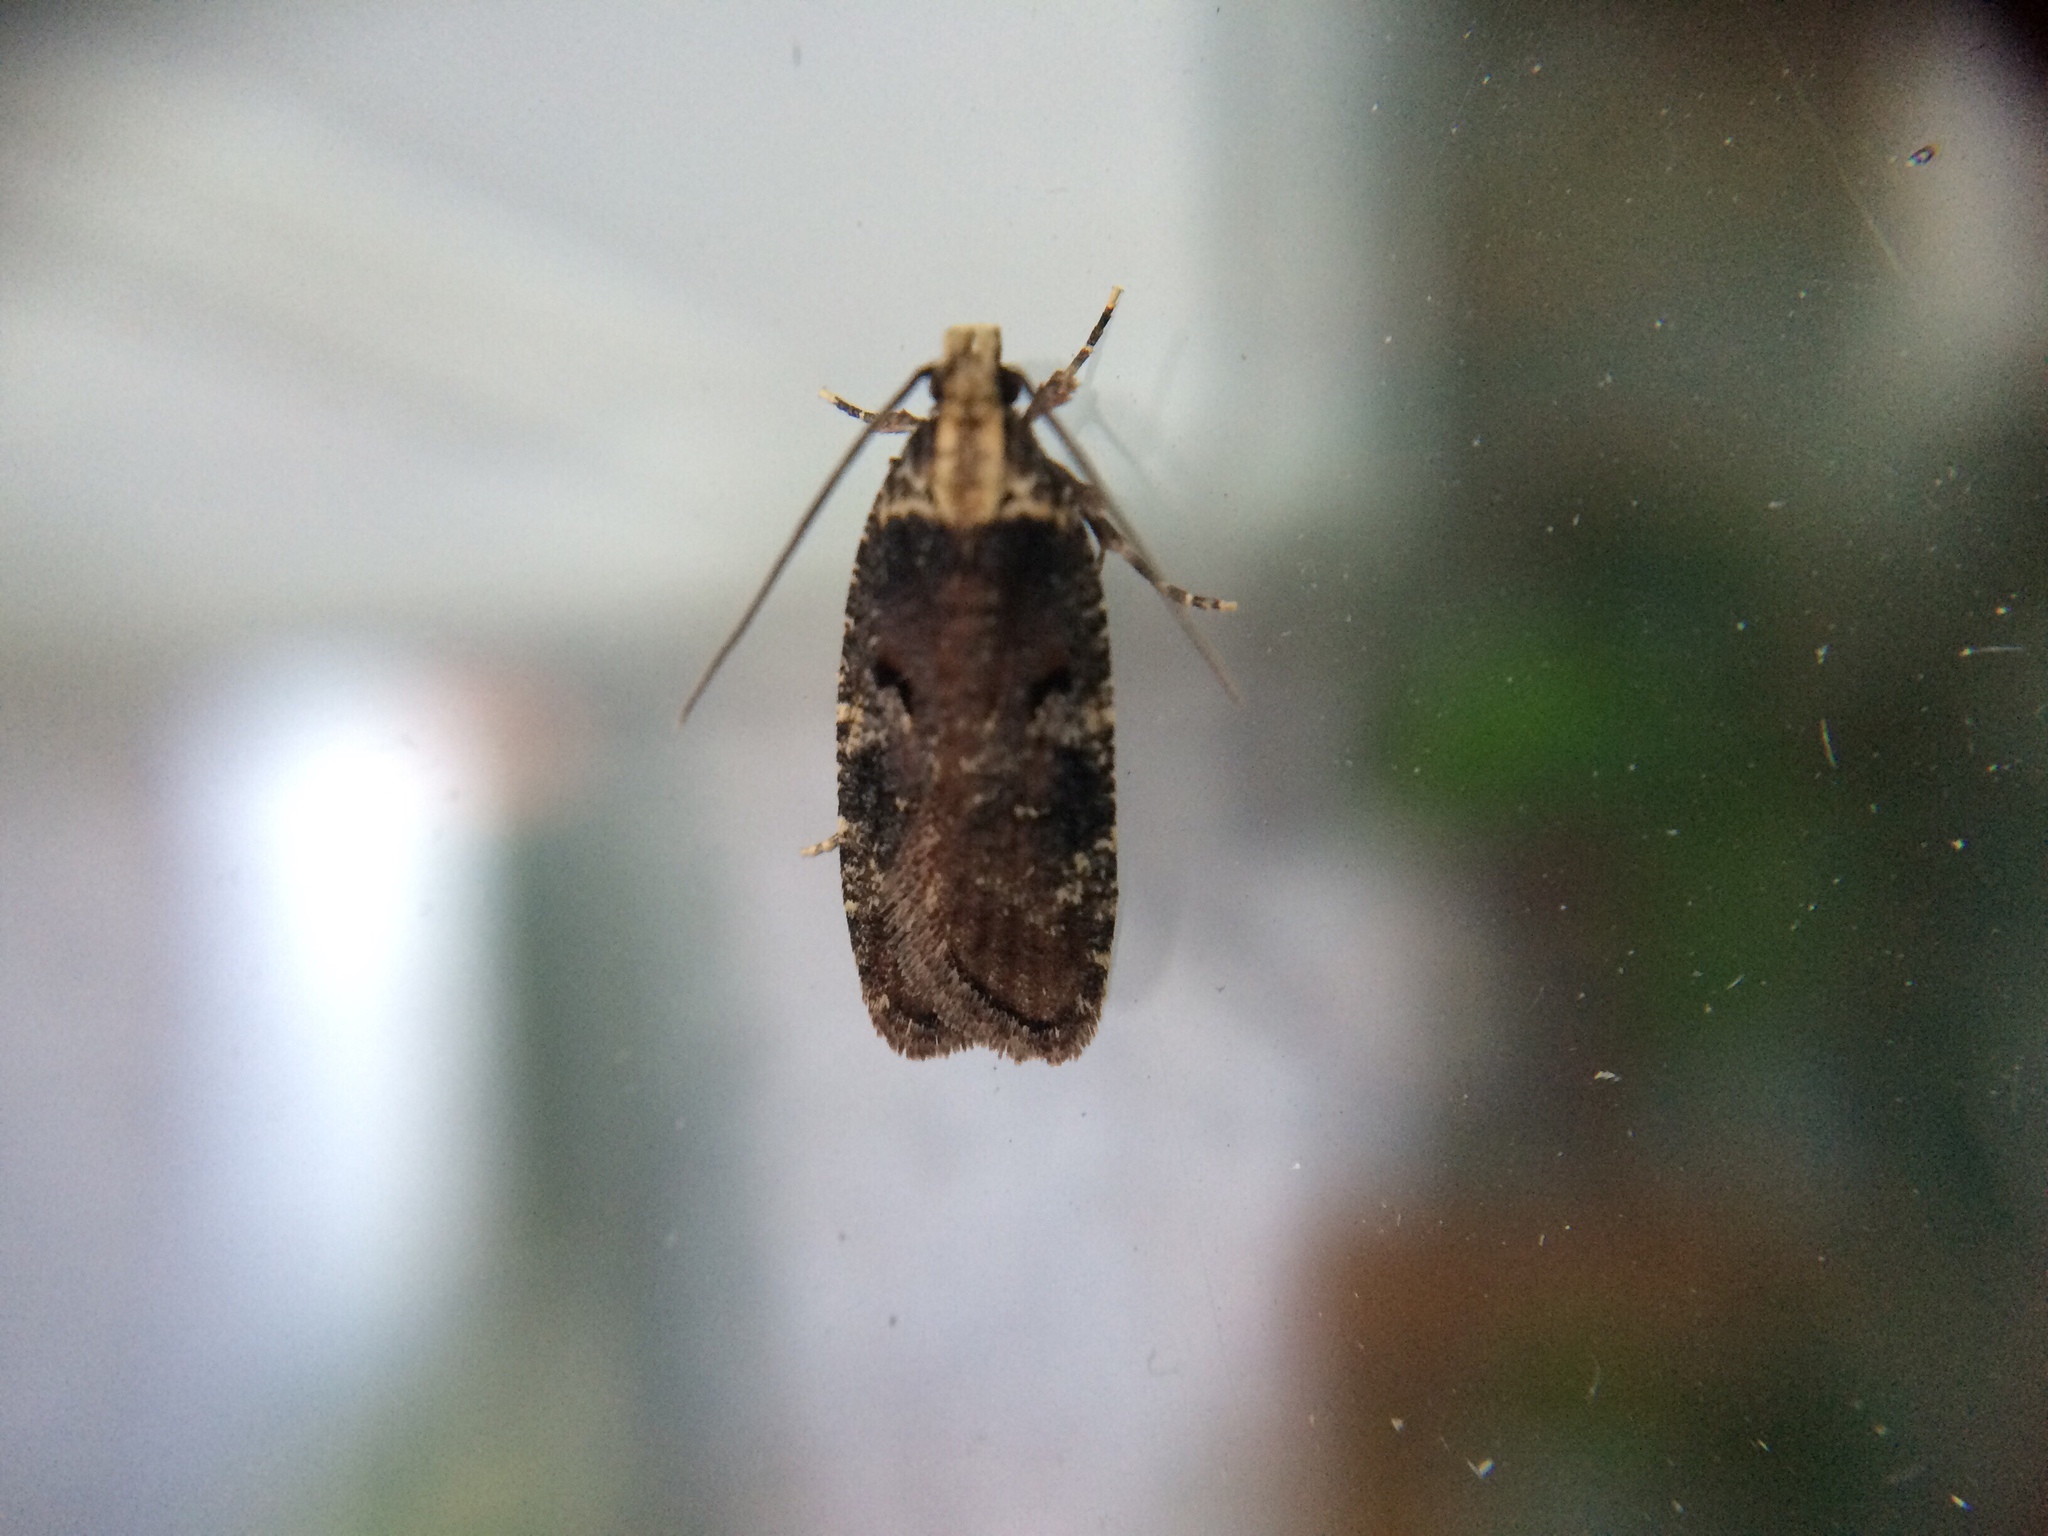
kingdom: Animalia
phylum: Arthropoda
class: Insecta
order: Lepidoptera
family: Depressariidae
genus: Agonopterix
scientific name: Agonopterix liturosa
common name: Large purple flat-body
